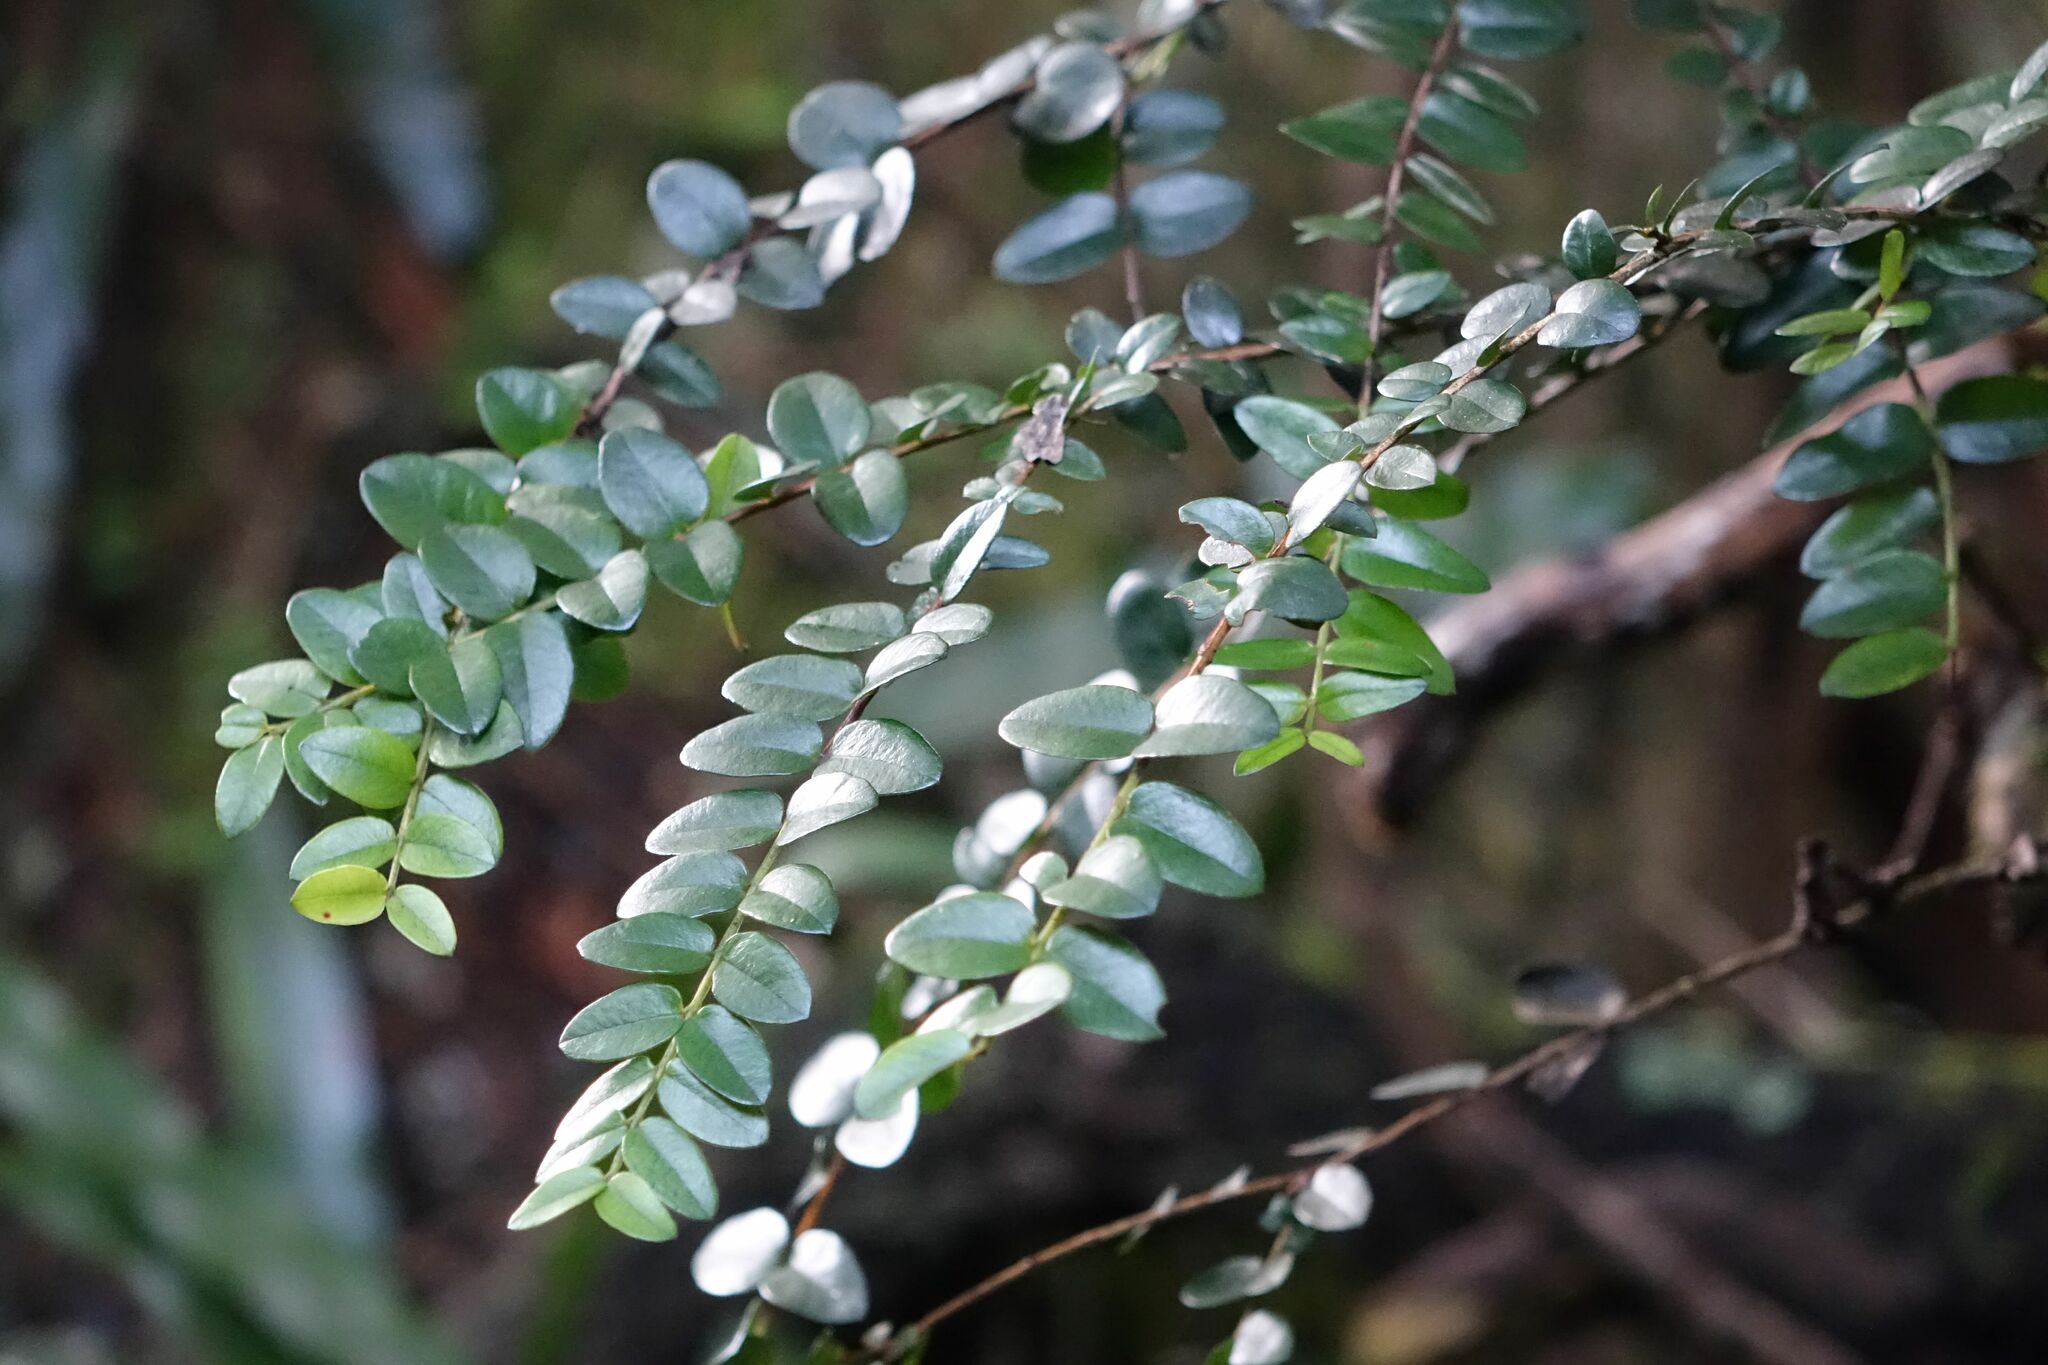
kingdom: Plantae
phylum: Tracheophyta
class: Magnoliopsida
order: Myrtales
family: Myrtaceae
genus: Metrosideros
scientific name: Metrosideros diffusa
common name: Small ratavine
